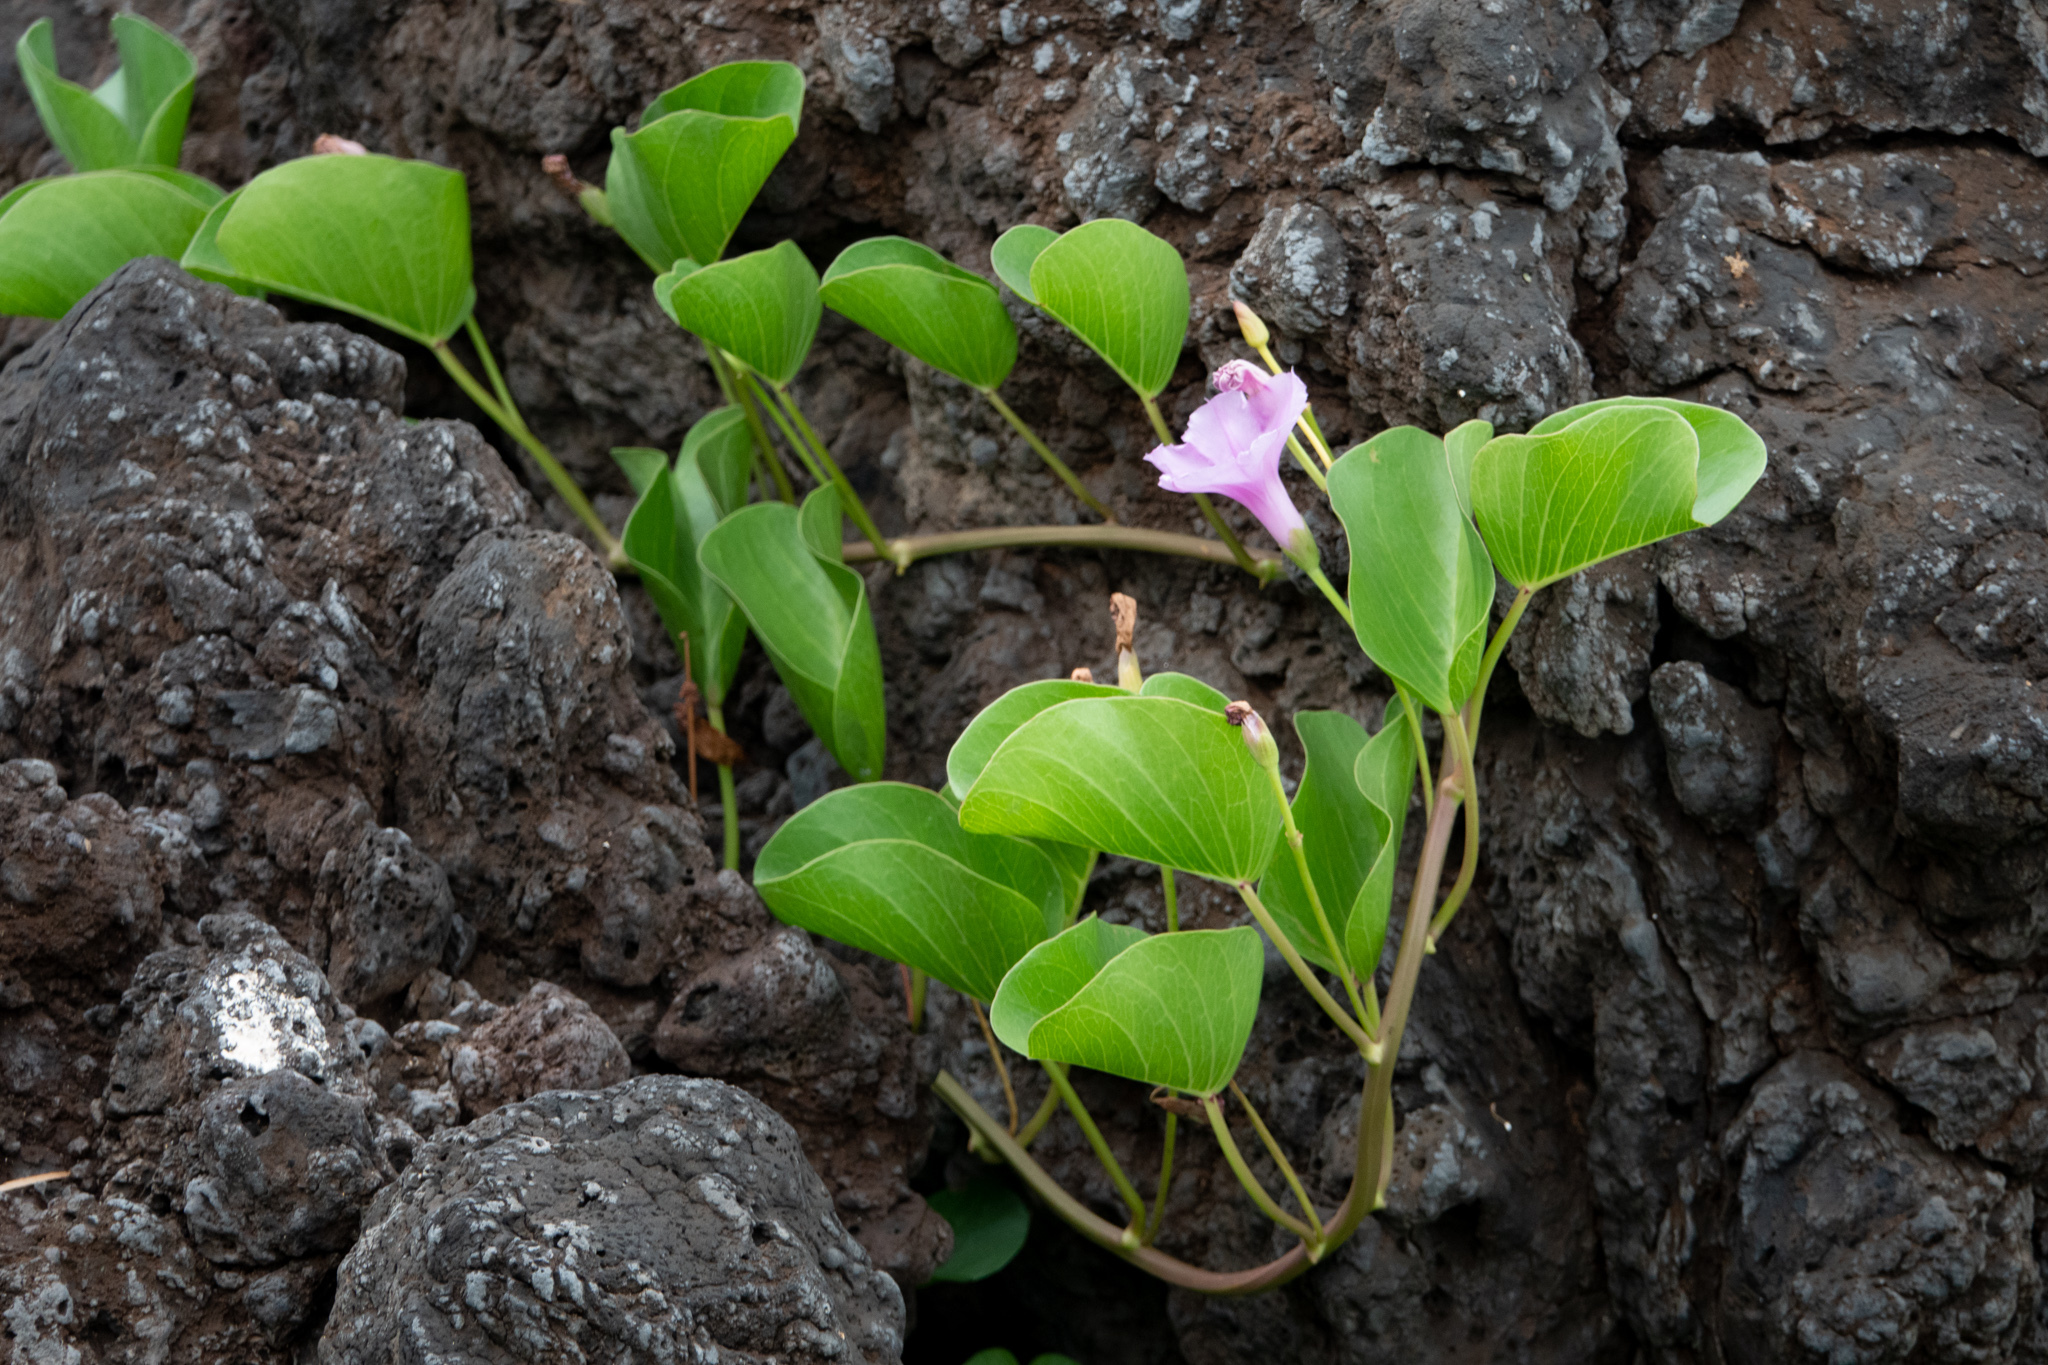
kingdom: Plantae
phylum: Tracheophyta
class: Magnoliopsida
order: Solanales
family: Convolvulaceae
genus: Ipomoea
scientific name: Ipomoea pes-caprae
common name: Beach morning glory
